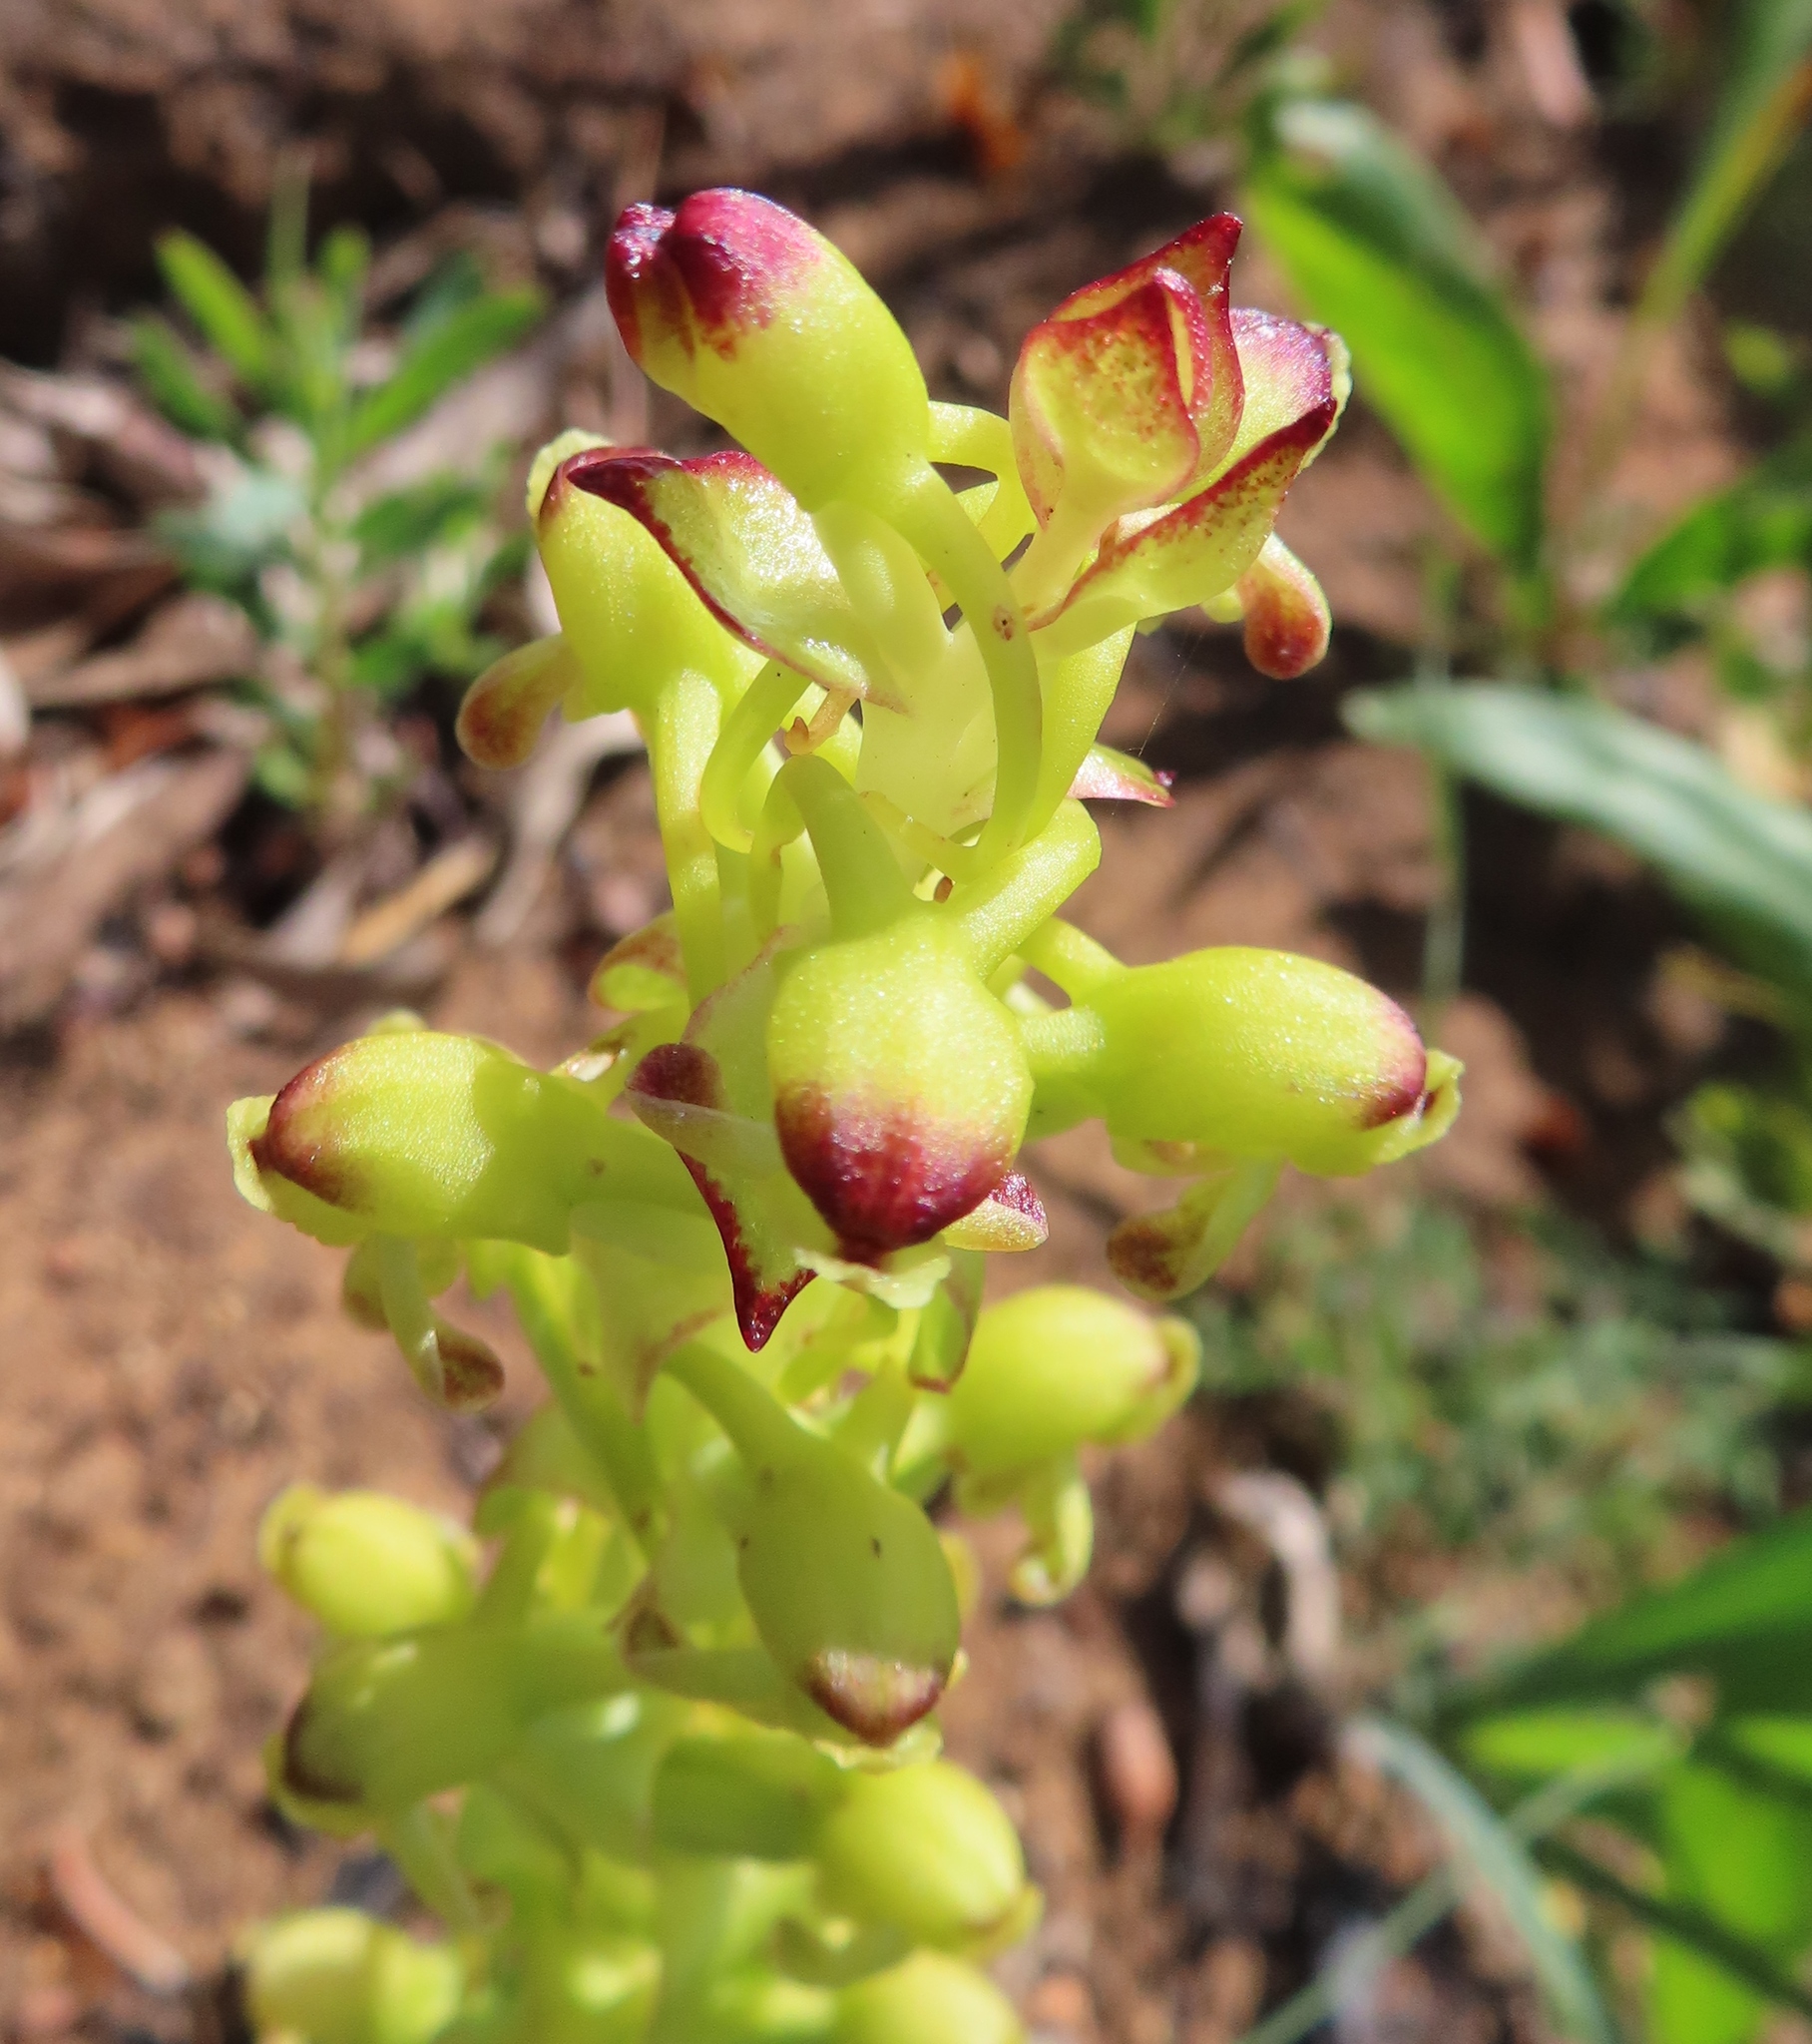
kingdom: Plantae
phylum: Tracheophyta
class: Liliopsida
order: Asparagales
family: Orchidaceae
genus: Satyrium
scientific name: Satyrium odorum
